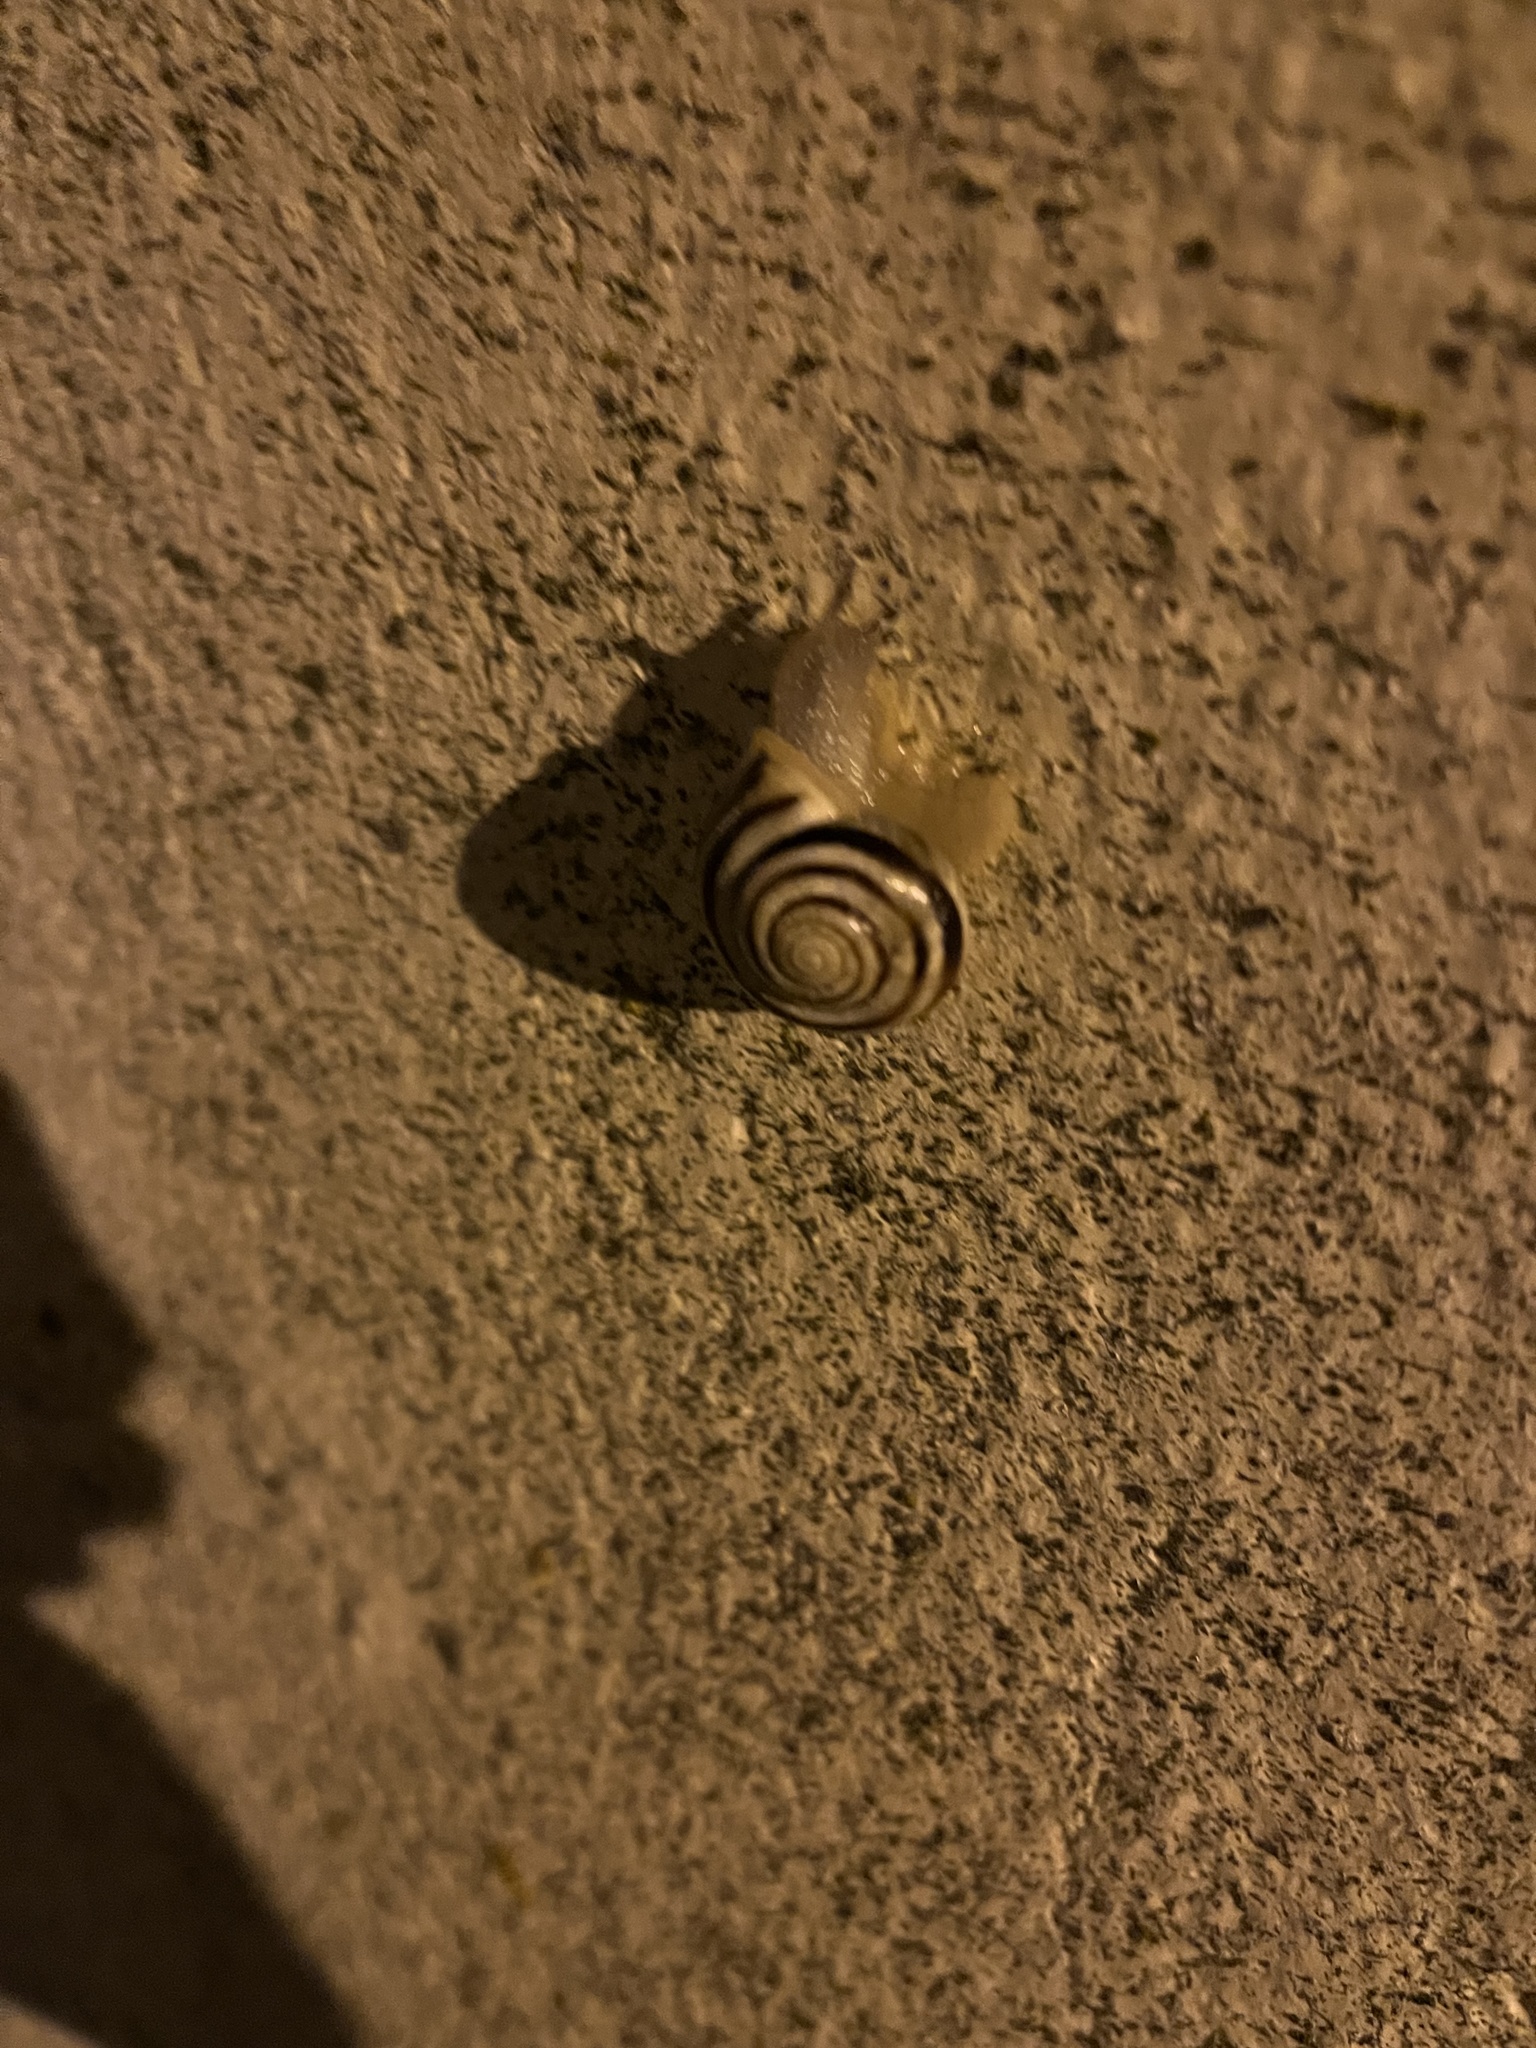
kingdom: Animalia
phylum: Mollusca
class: Gastropoda
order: Stylommatophora
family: Helicidae
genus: Cepaea
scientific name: Cepaea hortensis
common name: White-lip gardensnail
